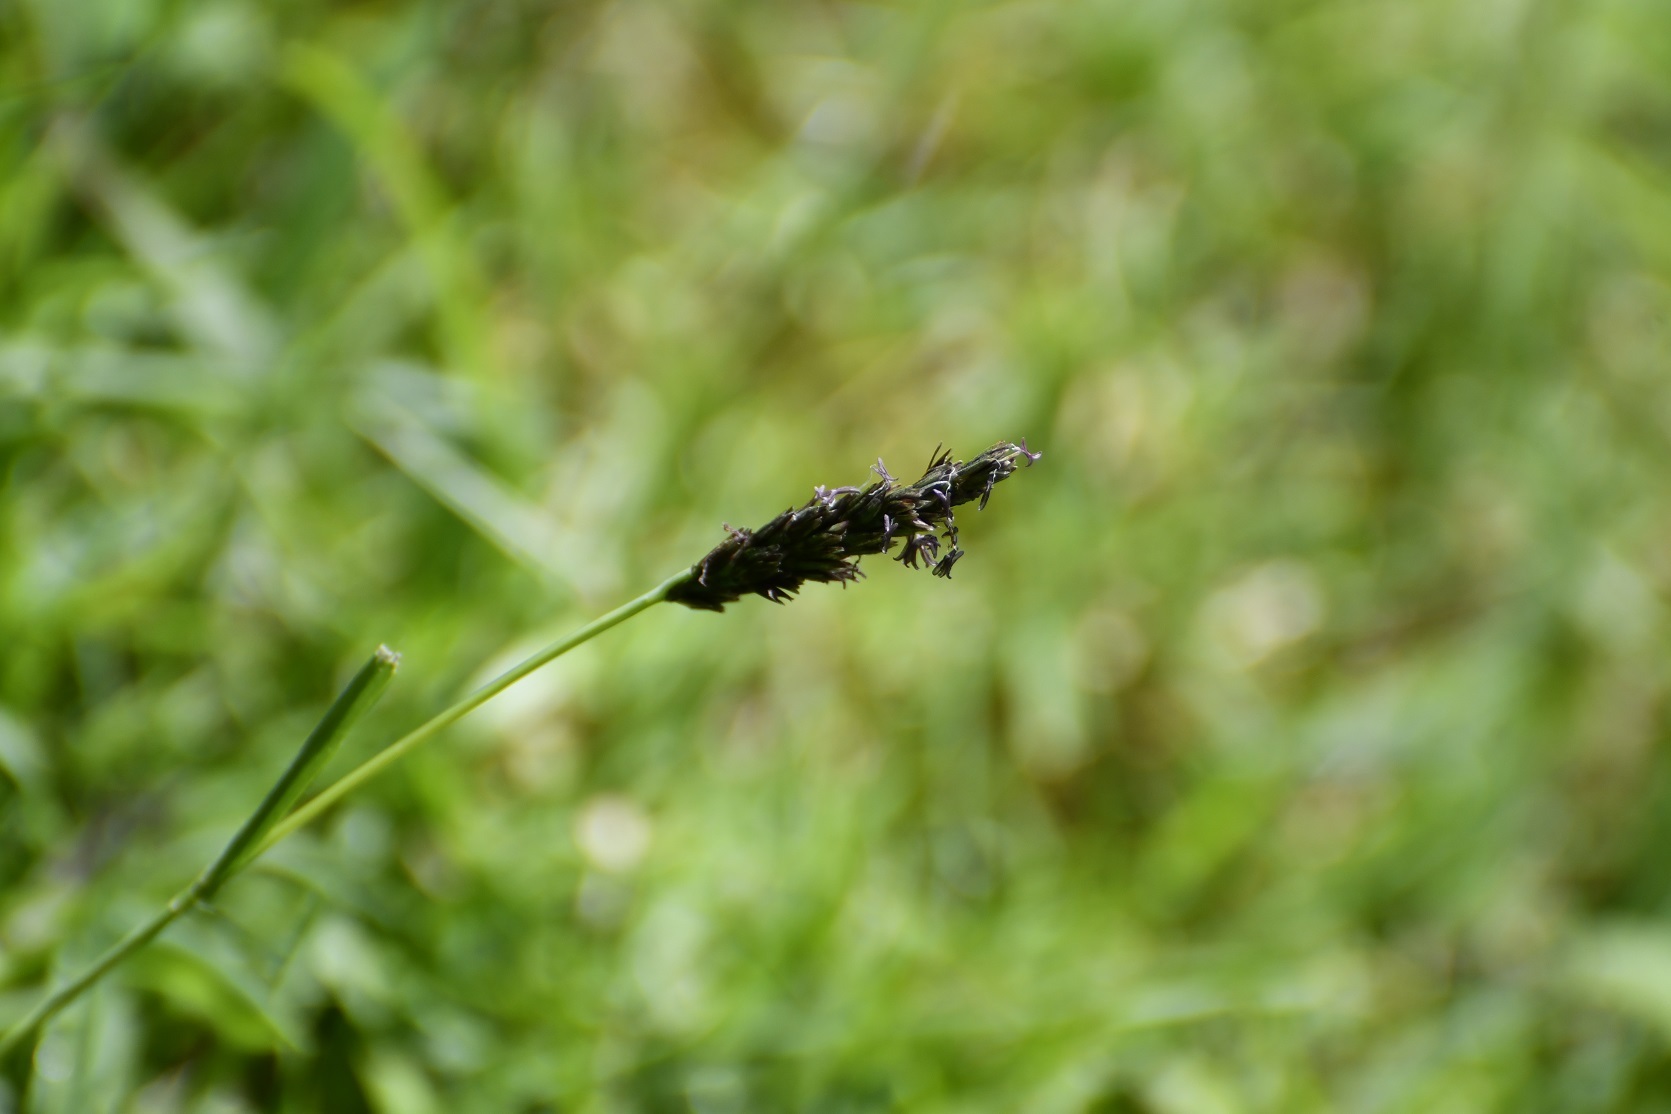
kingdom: Plantae
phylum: Tracheophyta
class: Liliopsida
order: Poales
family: Poaceae
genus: Hilaria
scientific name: Hilaria cenchroides
